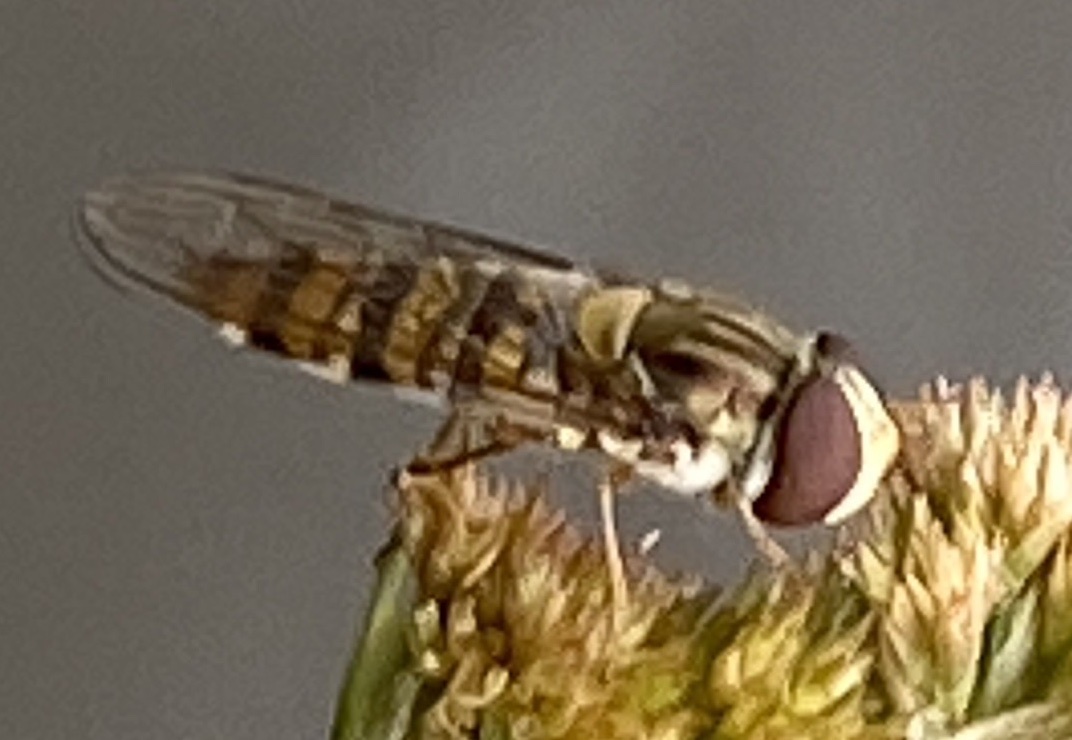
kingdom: Animalia
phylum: Arthropoda
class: Insecta
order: Diptera
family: Syrphidae
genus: Episyrphus
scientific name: Episyrphus balteatus
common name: Marmalade hoverfly
